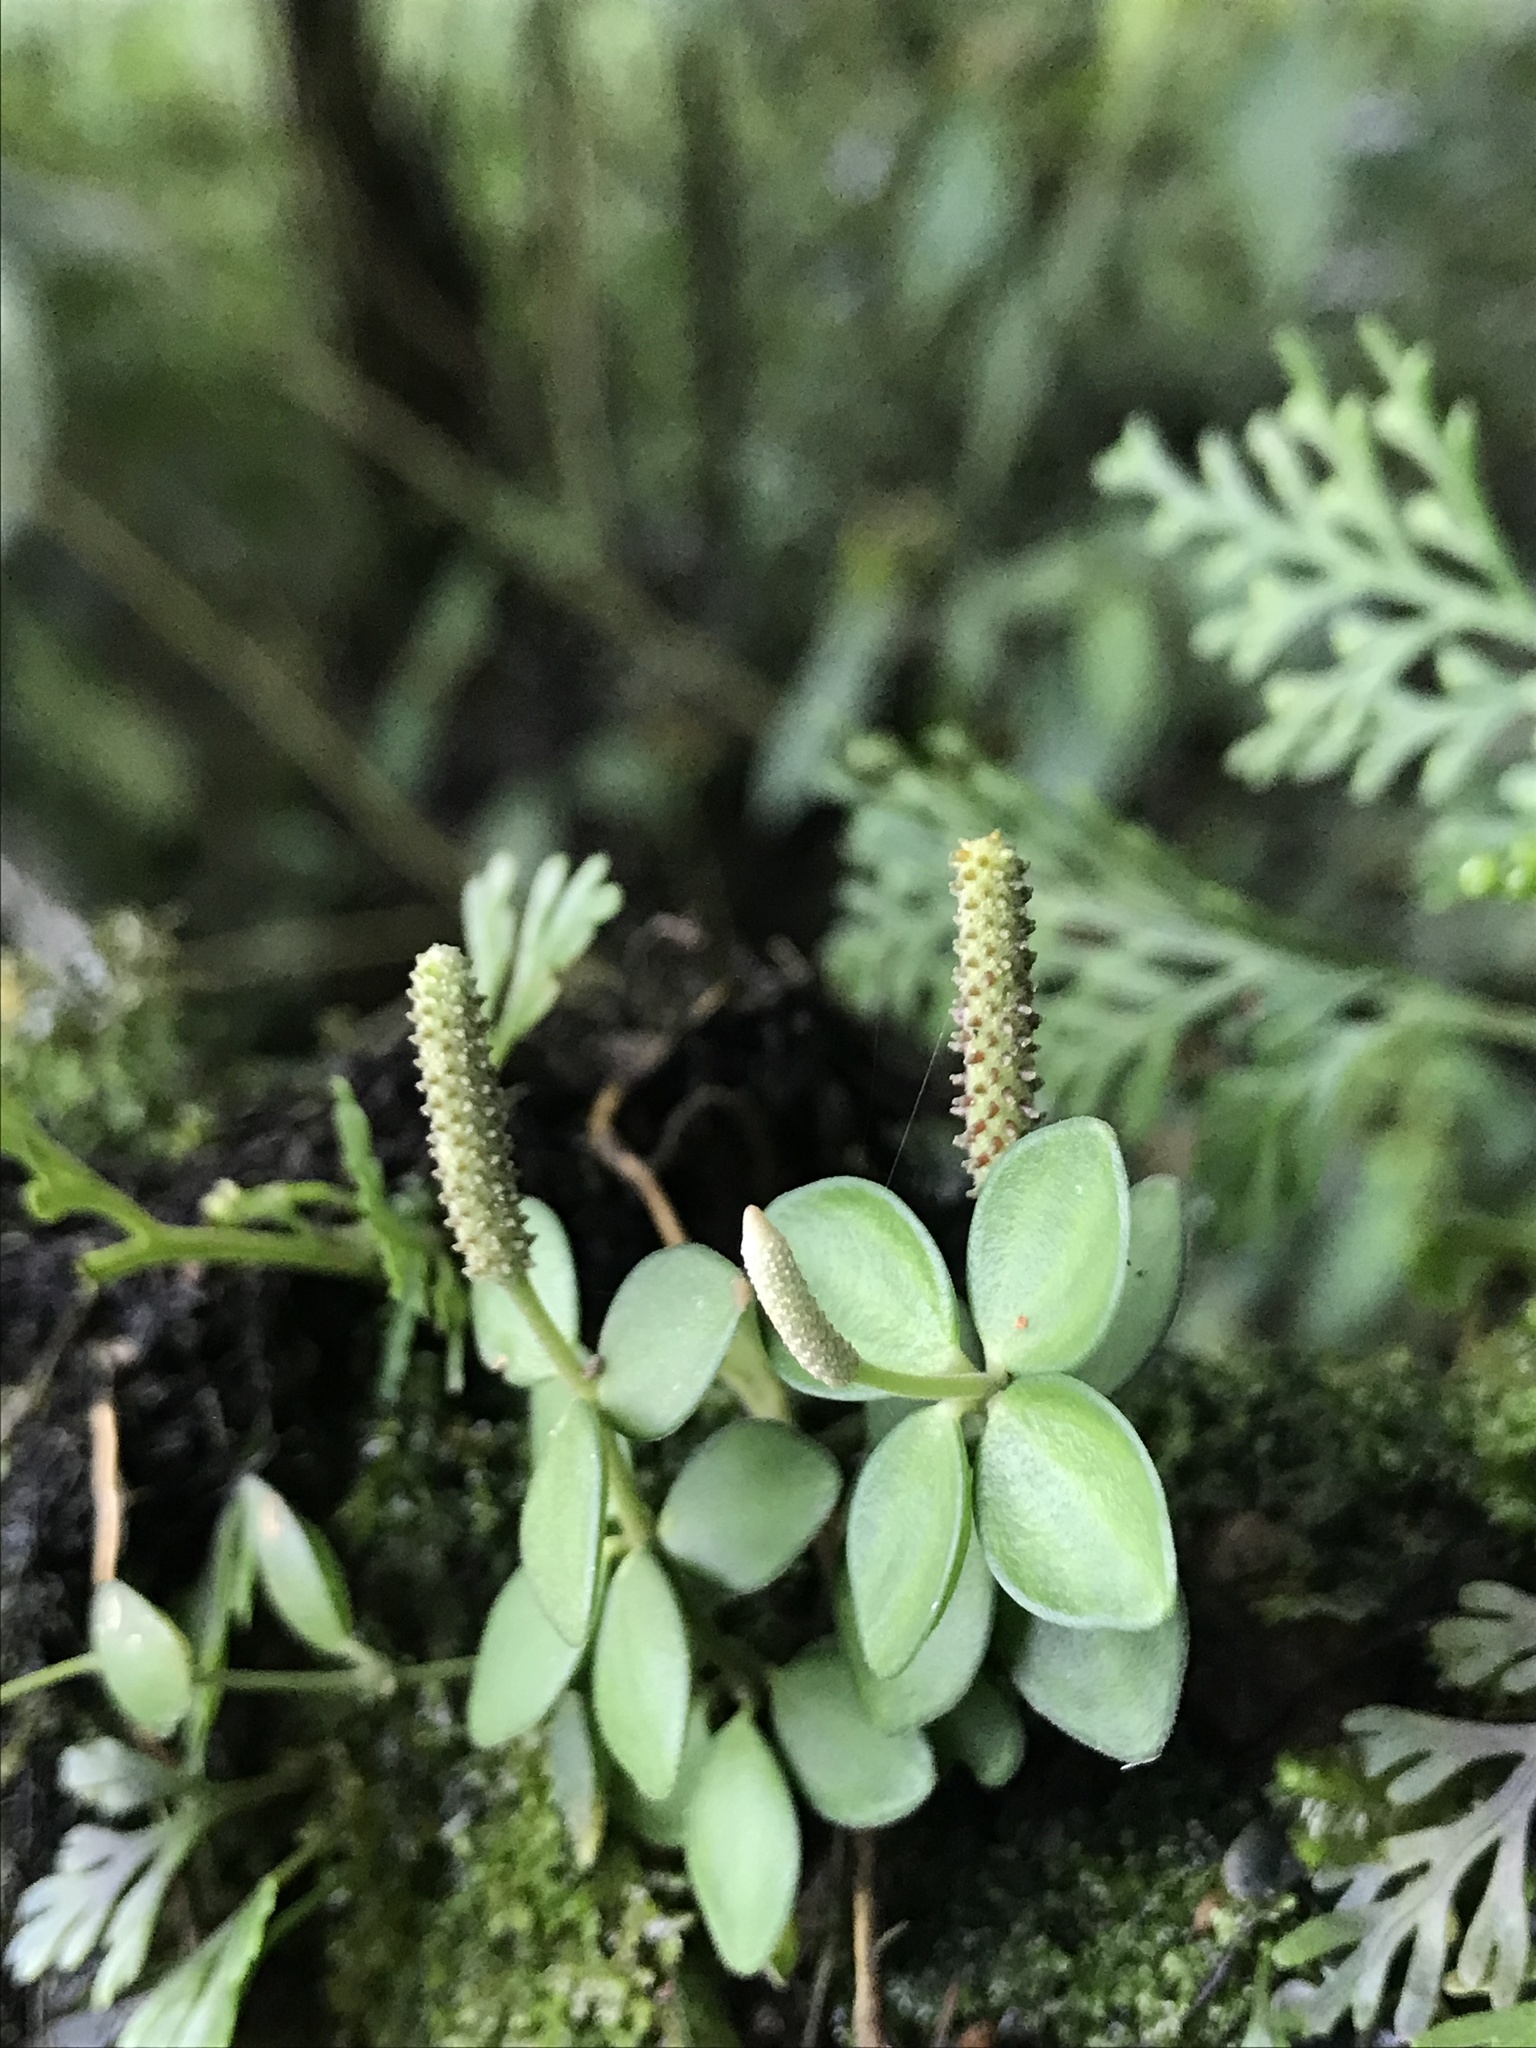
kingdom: Plantae
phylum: Tracheophyta
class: Magnoliopsida
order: Piperales
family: Piperaceae
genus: Peperomia
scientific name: Peperomia tetraphylla
